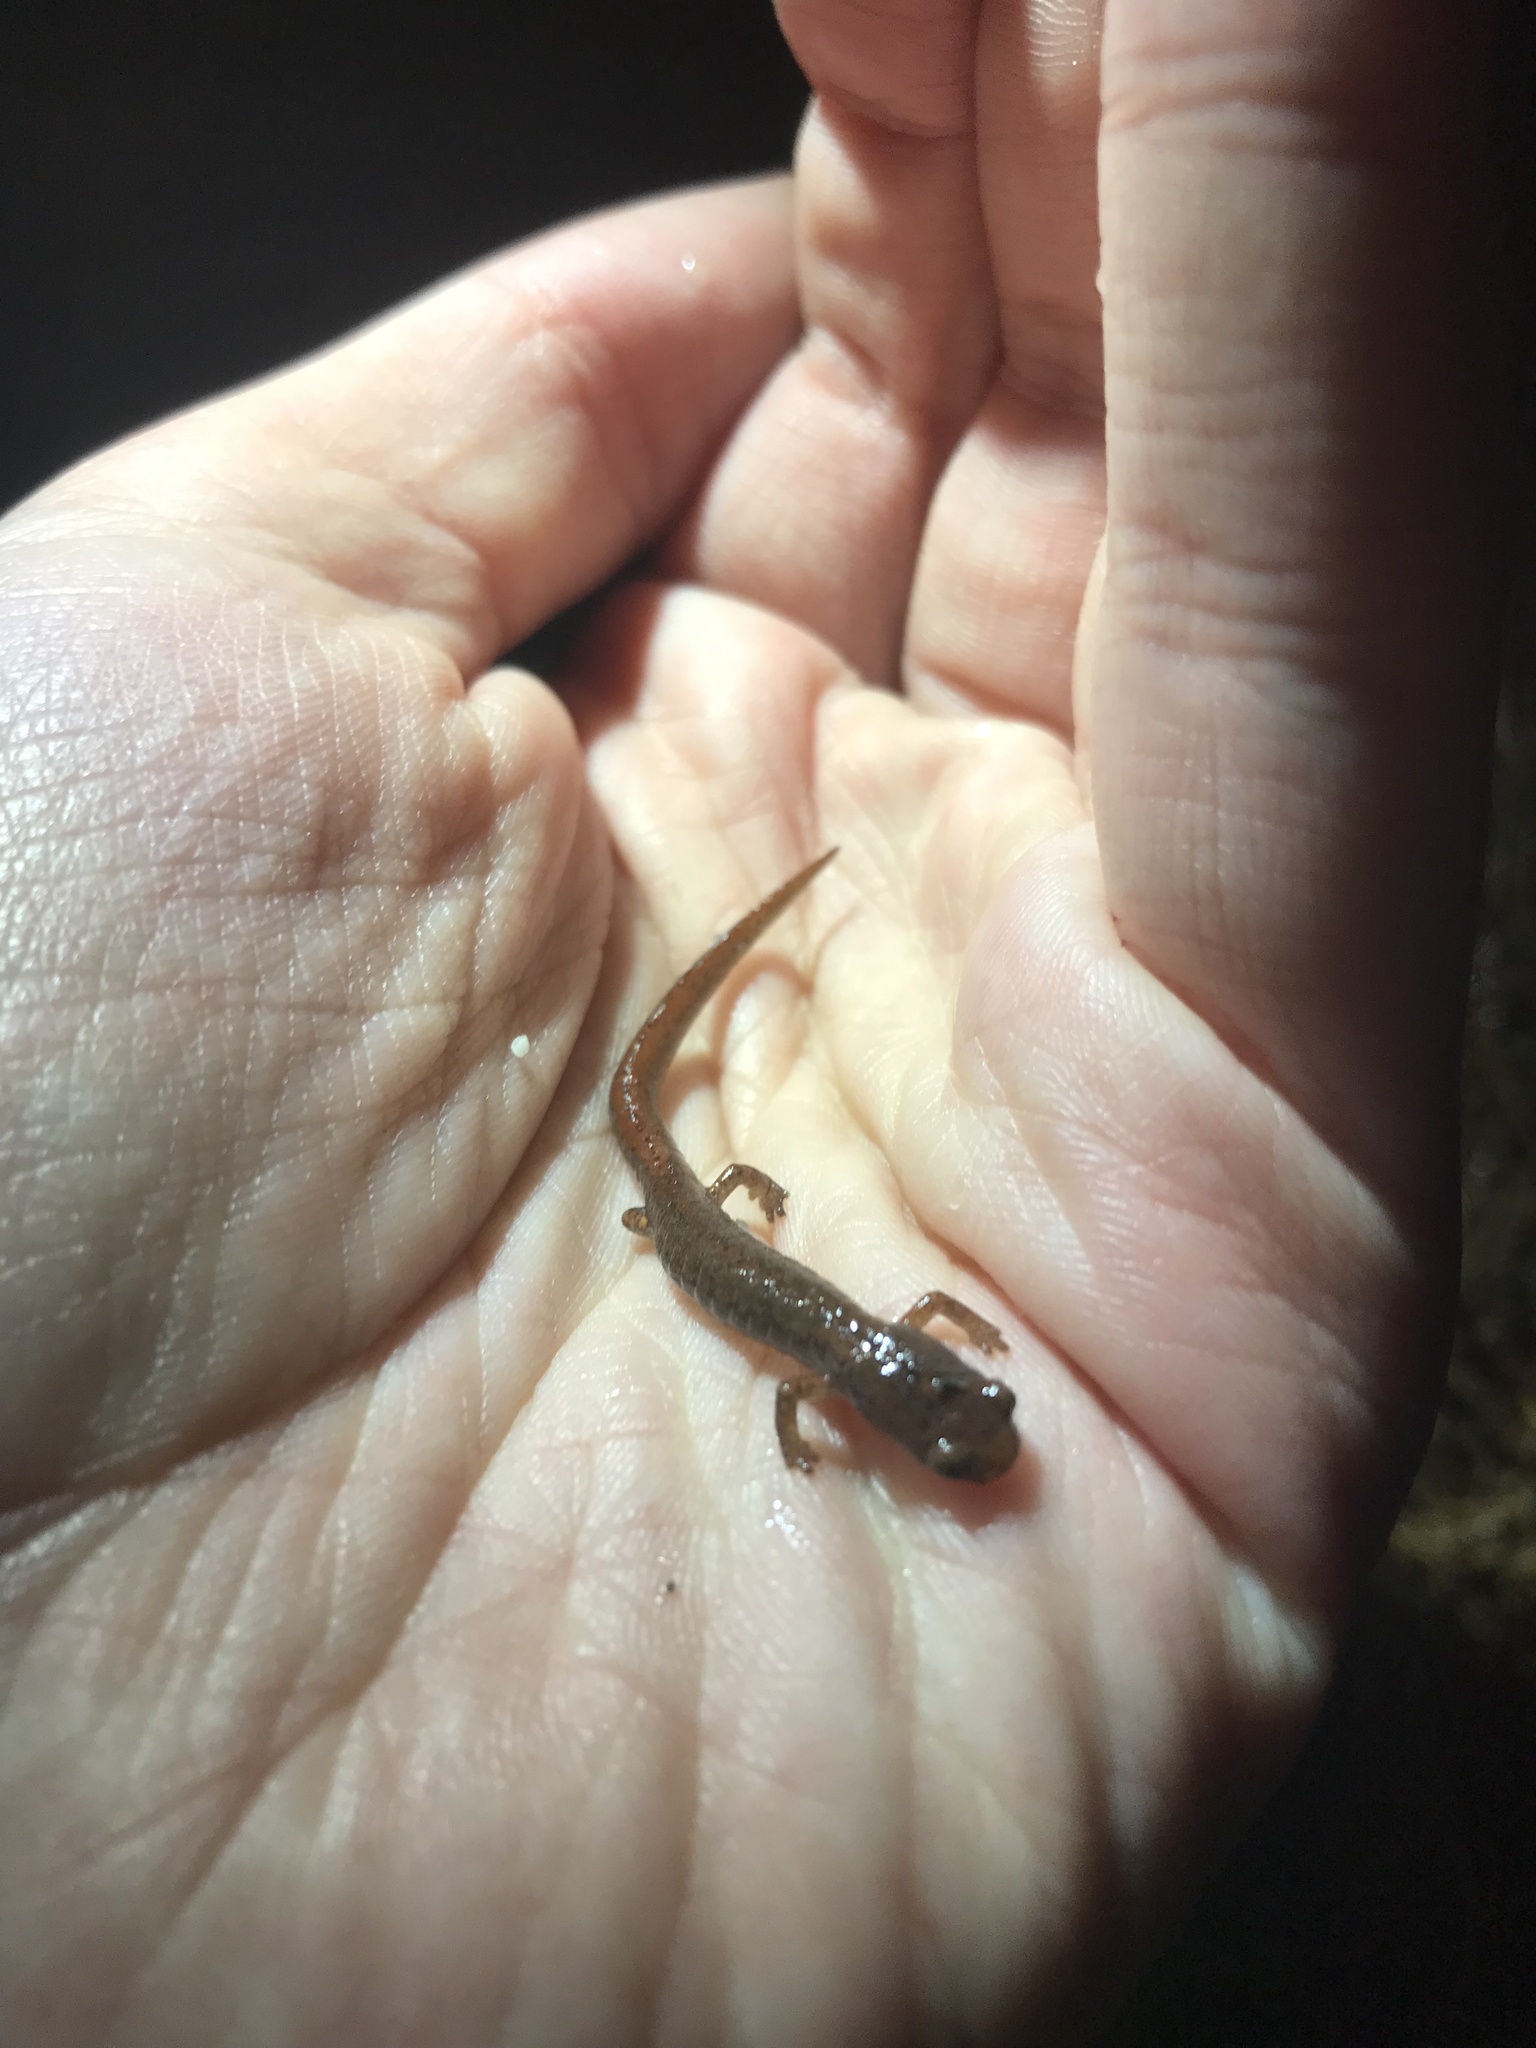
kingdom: Animalia
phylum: Chordata
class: Amphibia
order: Caudata
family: Plethodontidae
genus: Hemidactylium
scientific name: Hemidactylium scutatum
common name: Four-toed salamander
